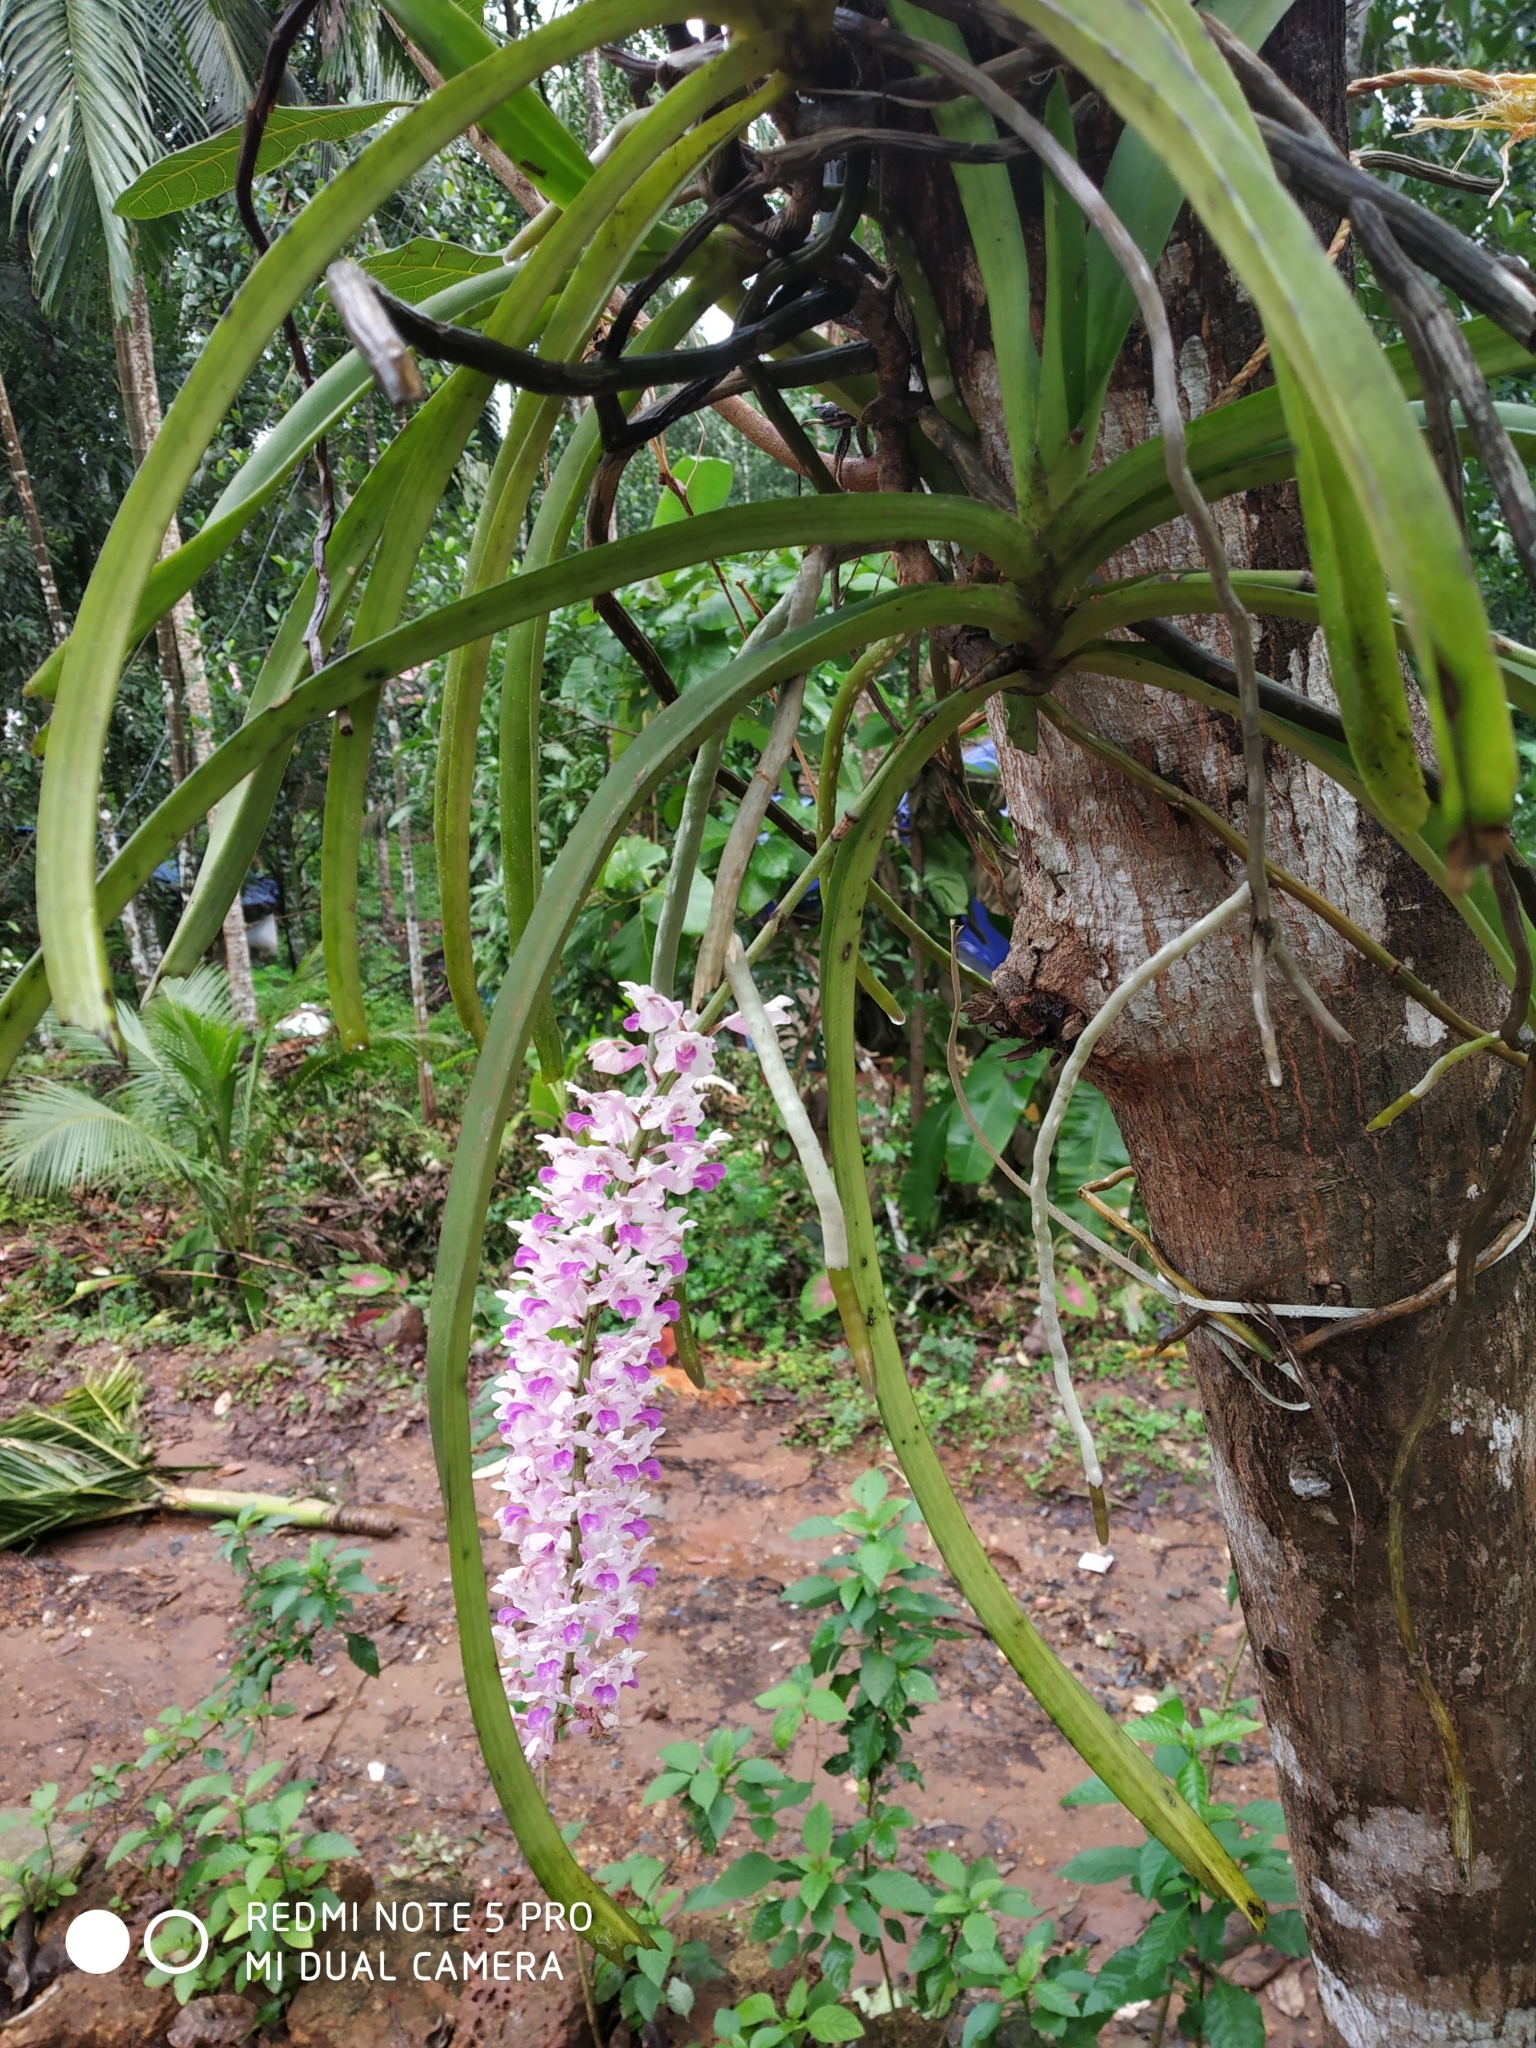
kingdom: Plantae
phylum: Tracheophyta
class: Liliopsida
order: Asparagales
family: Orchidaceae
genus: Rhynchostylis
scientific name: Rhynchostylis retusa
